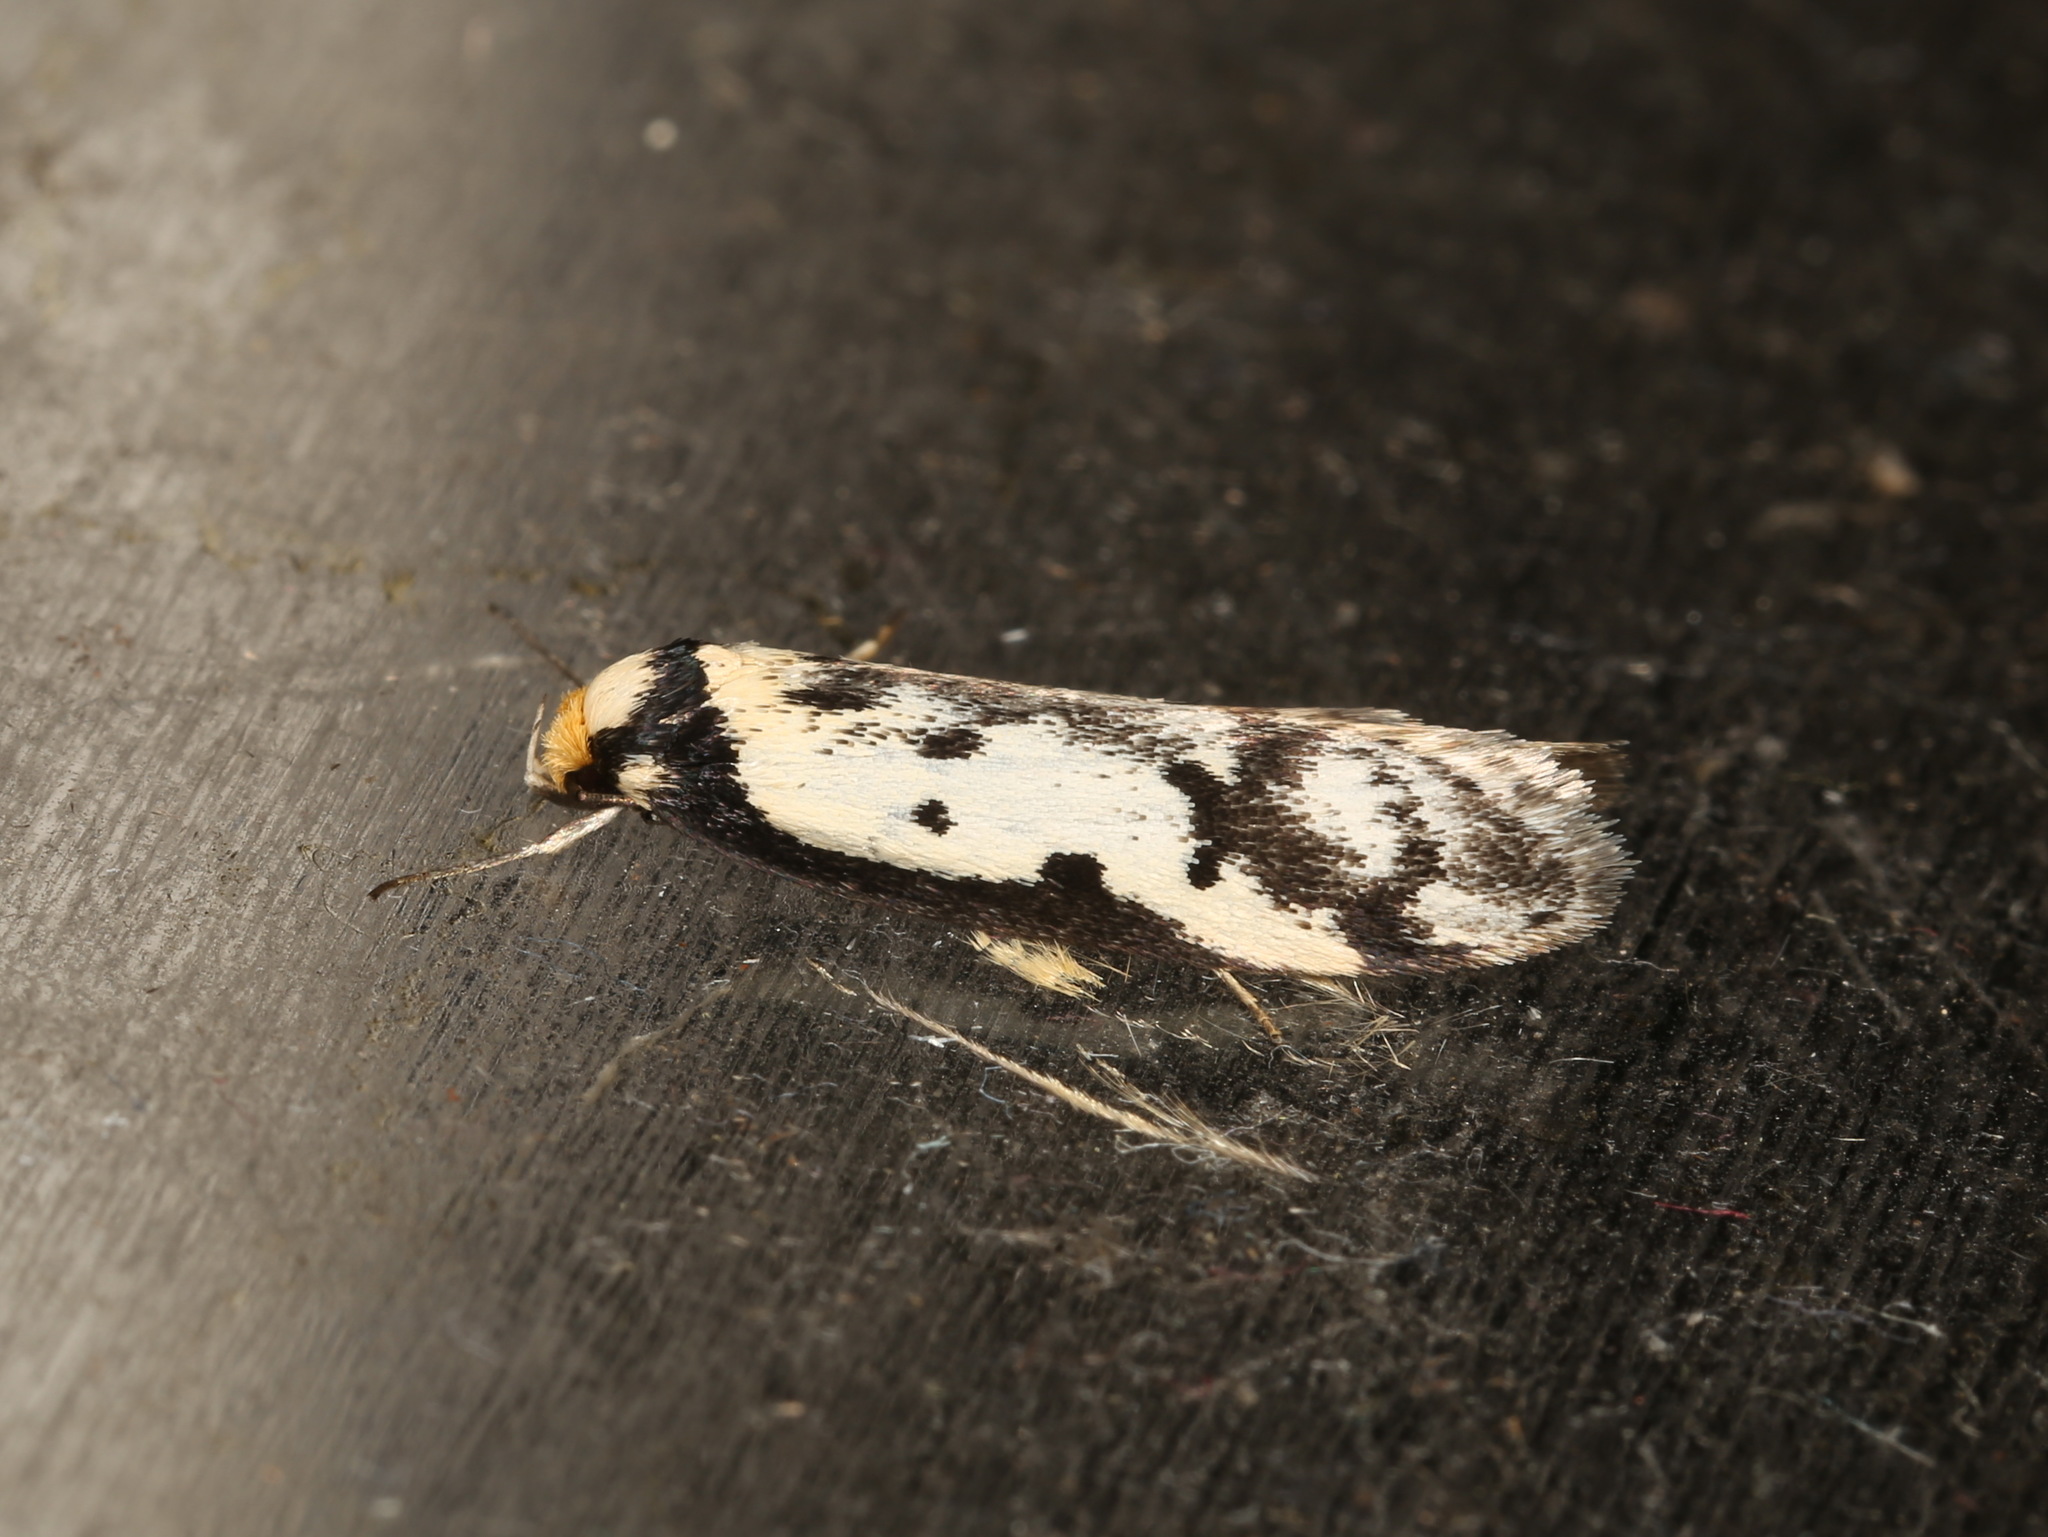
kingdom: Animalia
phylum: Arthropoda
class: Insecta
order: Lepidoptera
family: Oecophoridae
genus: Philobota
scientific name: Philobota lysizona
